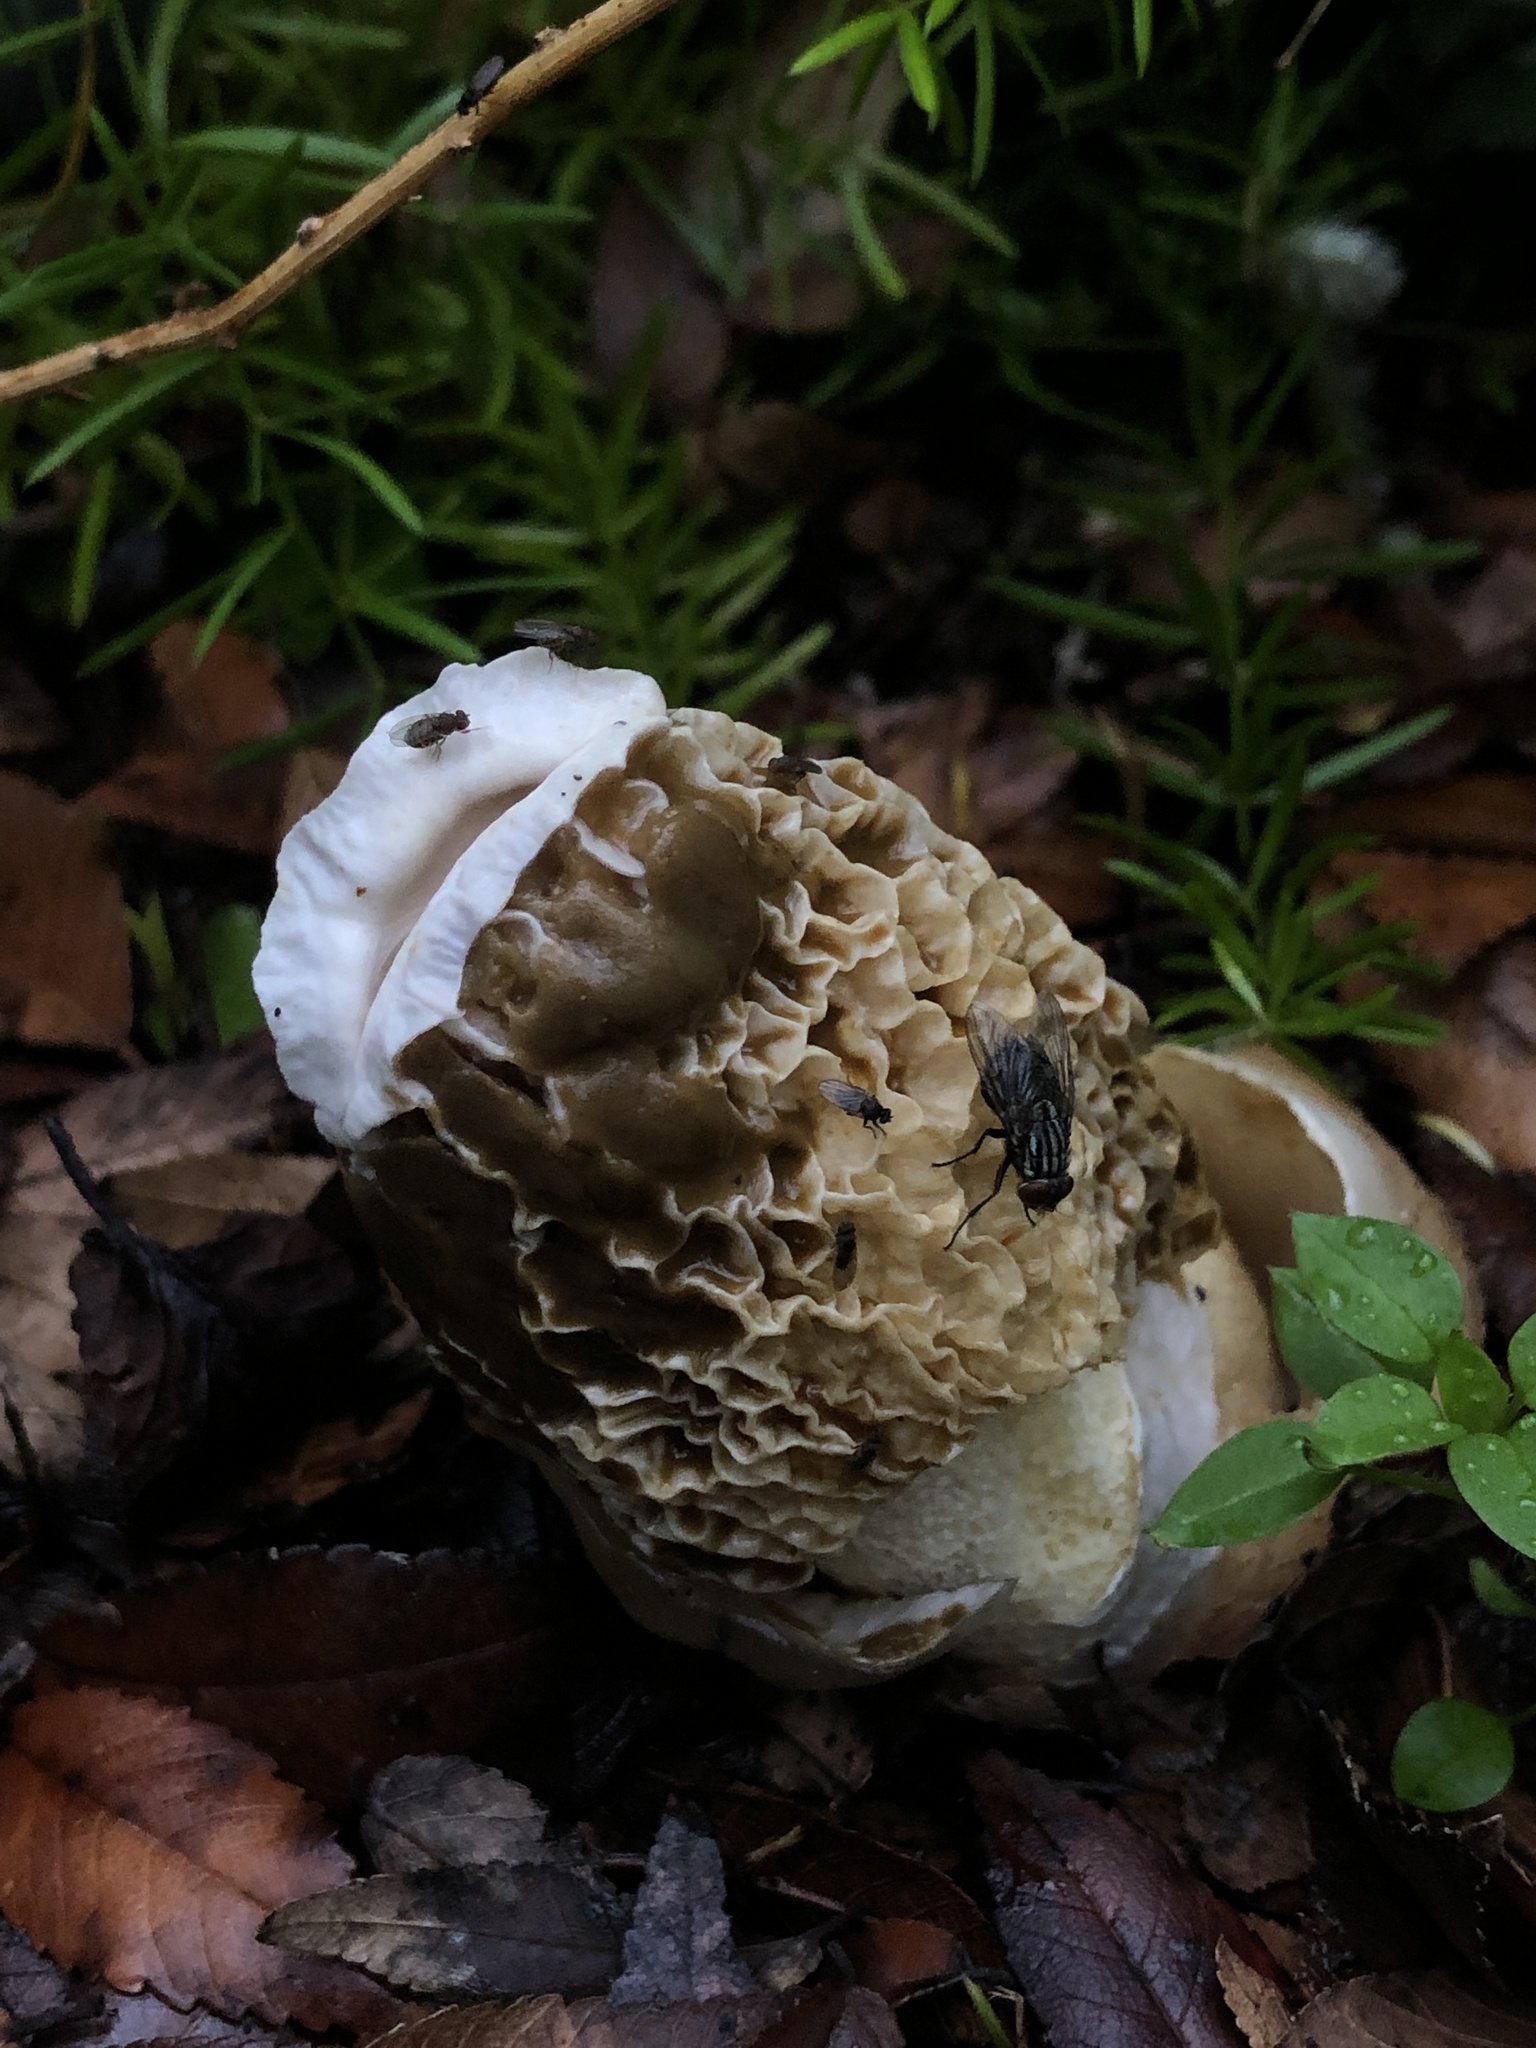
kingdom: Fungi
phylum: Basidiomycota
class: Agaricomycetes
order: Phallales
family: Phallaceae
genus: Phallus
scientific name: Phallus hadriani
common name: Sand stinkhorn
